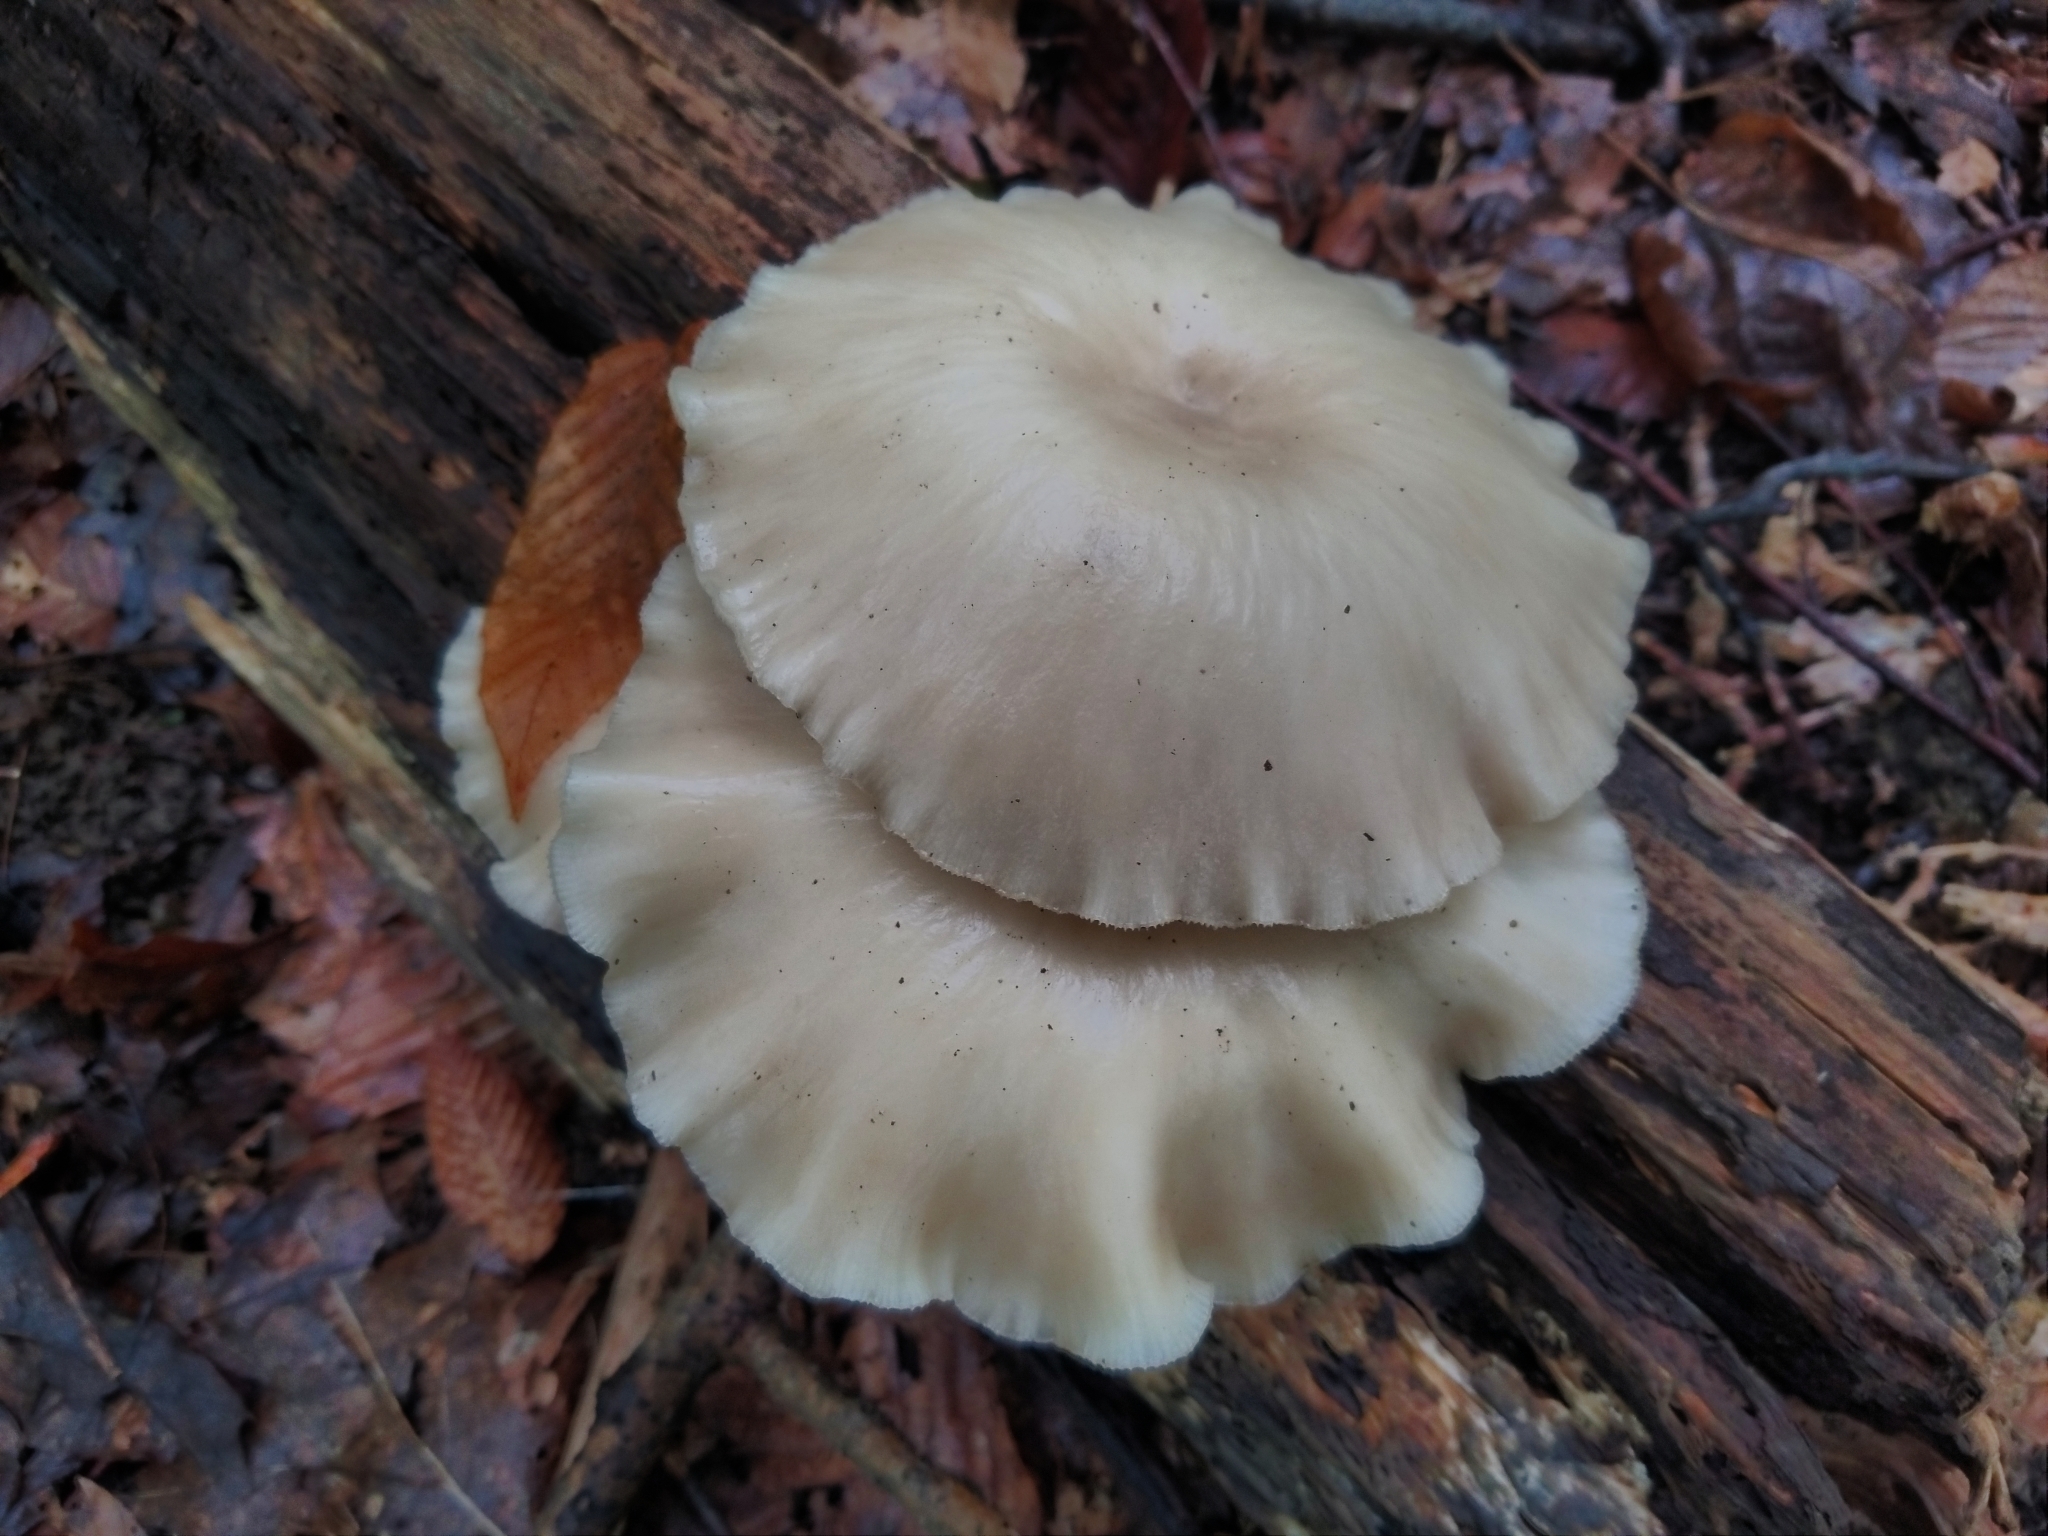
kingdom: Fungi
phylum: Basidiomycota
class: Agaricomycetes
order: Agaricales
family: Pleurotaceae
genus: Pleurotus
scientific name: Pleurotus ostreatus
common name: Oyster mushroom
